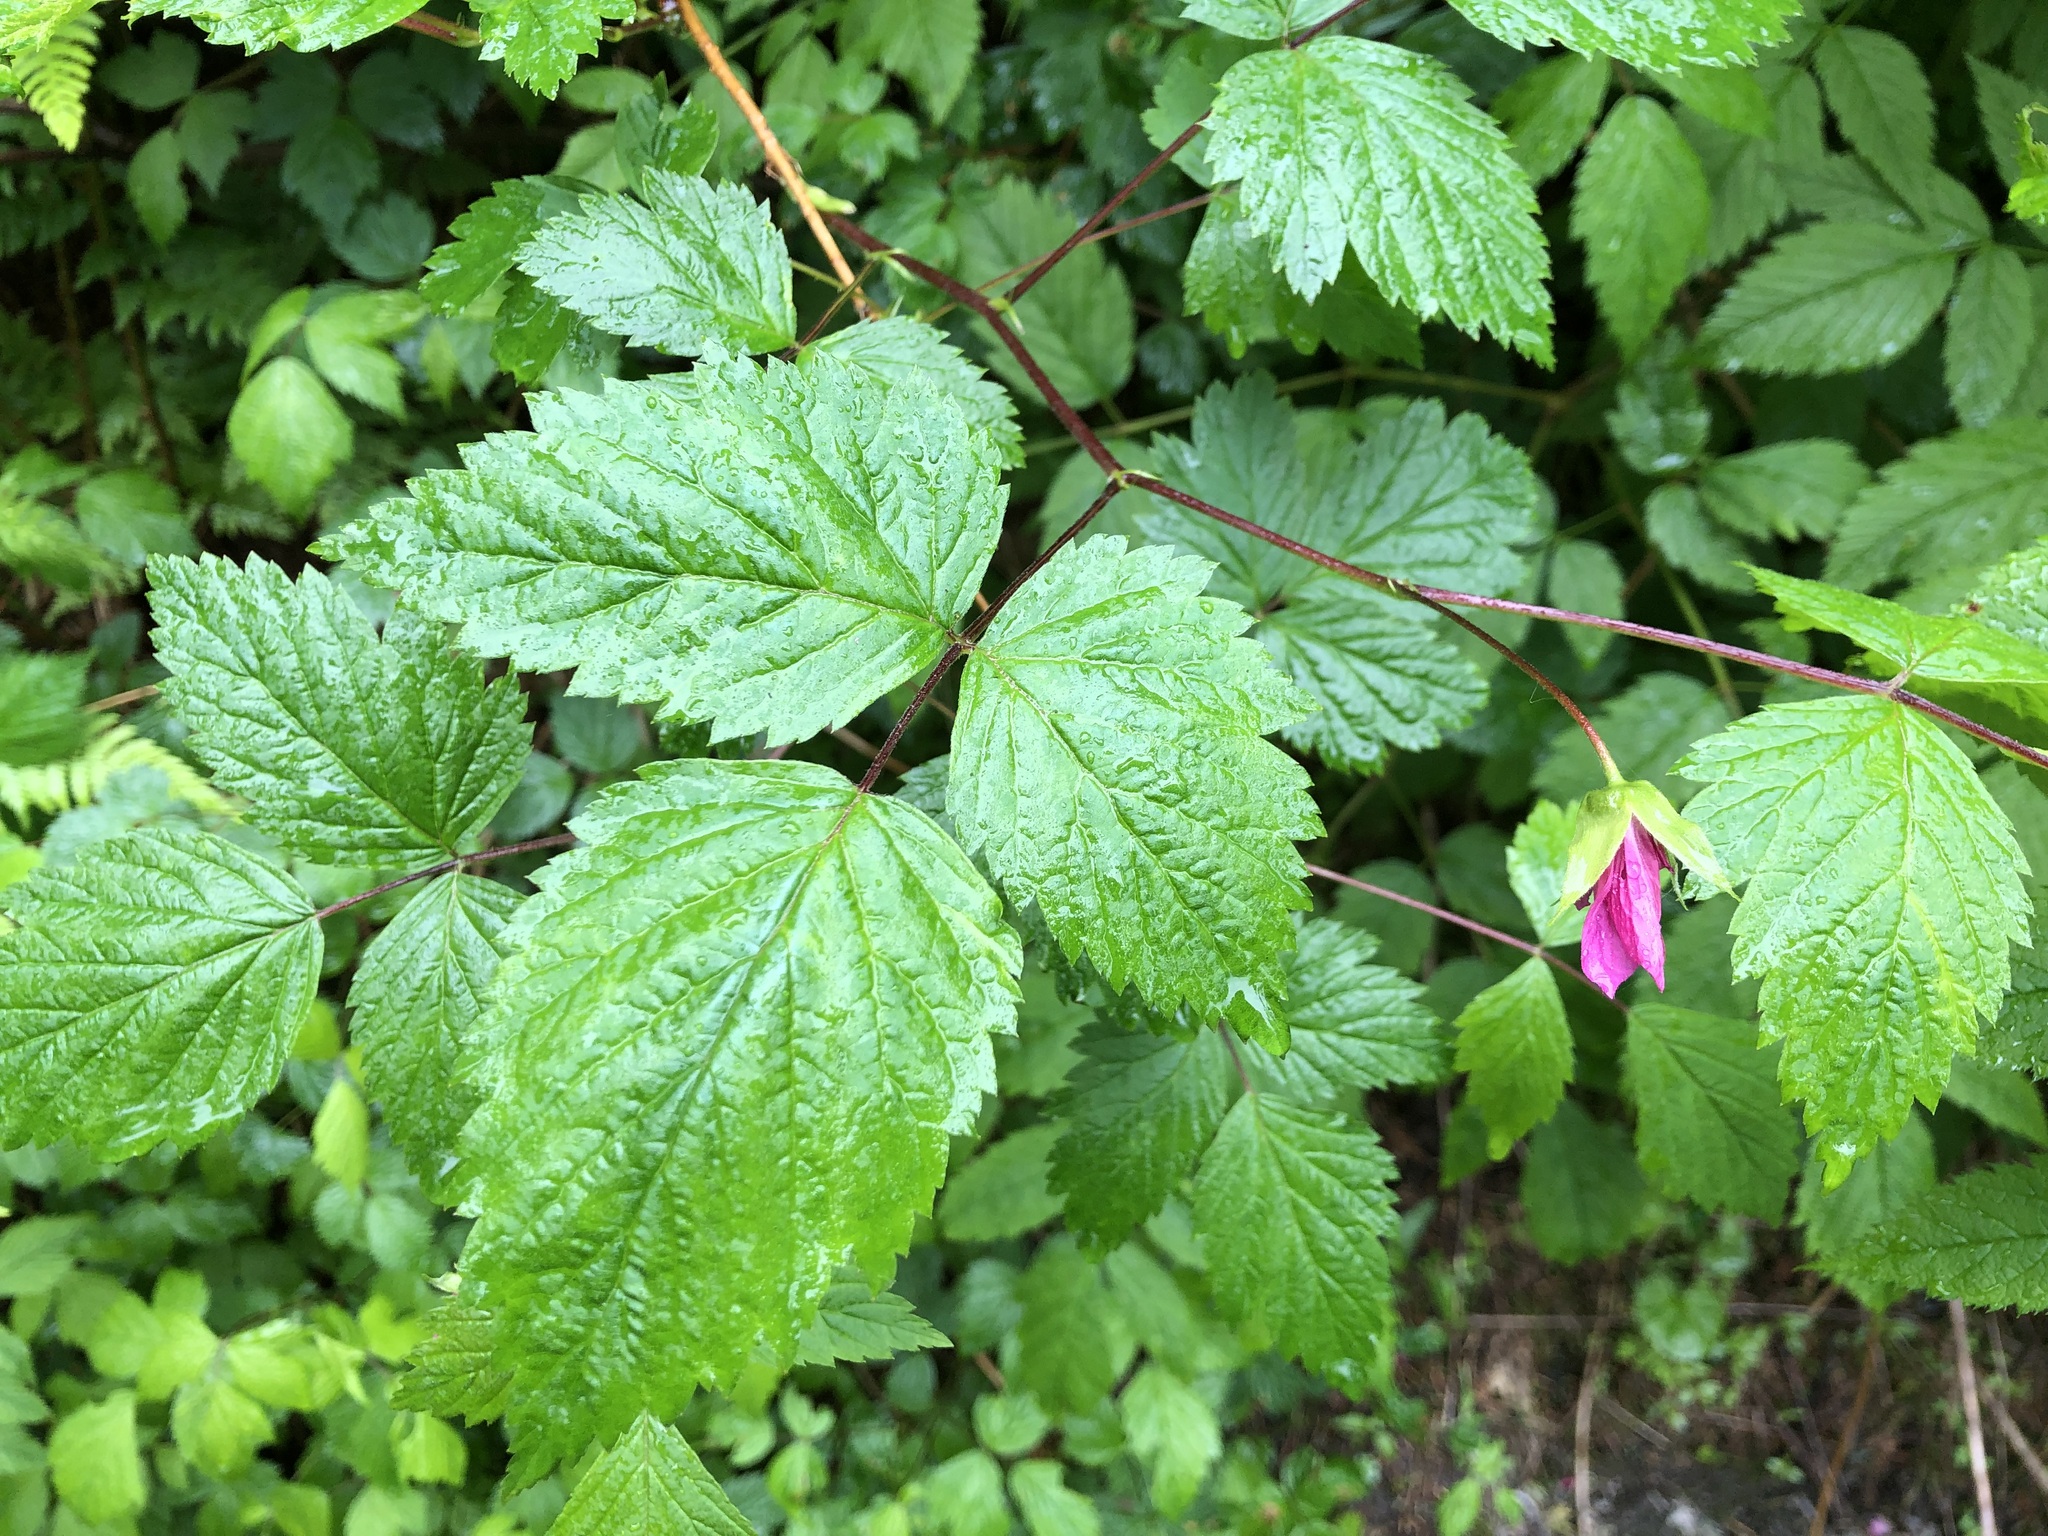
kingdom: Plantae
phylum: Tracheophyta
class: Magnoliopsida
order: Rosales
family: Rosaceae
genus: Rubus
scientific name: Rubus spectabilis
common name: Salmonberry
